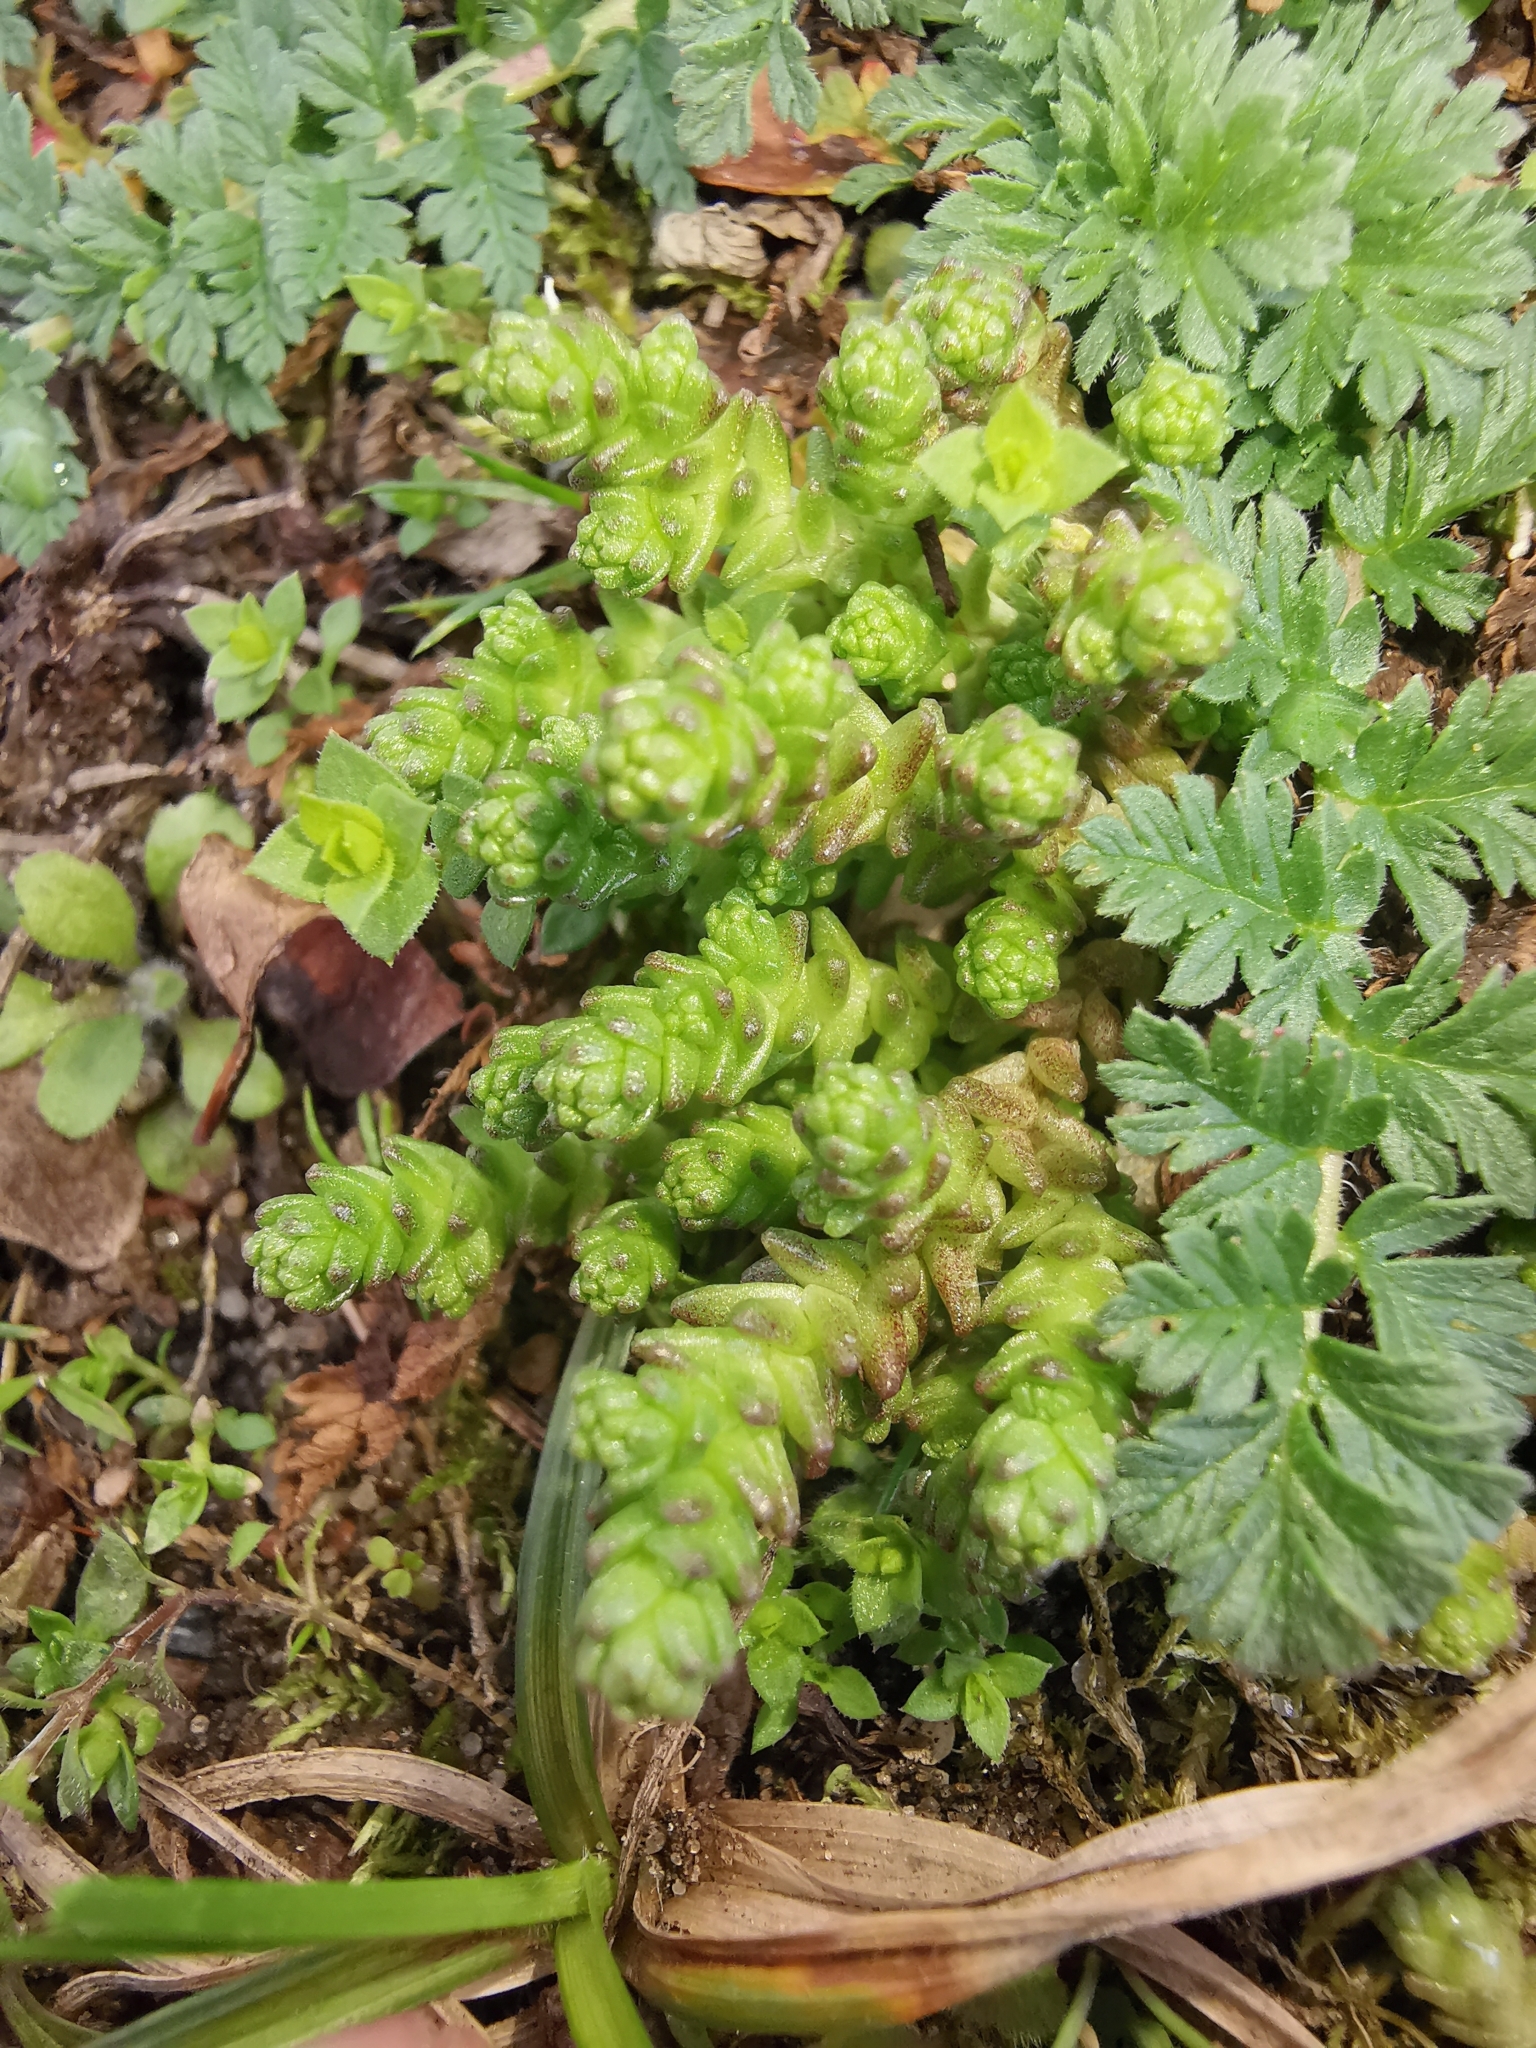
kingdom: Plantae
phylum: Tracheophyta
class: Magnoliopsida
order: Saxifragales
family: Crassulaceae
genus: Sedum
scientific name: Sedum acre
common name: Biting stonecrop
